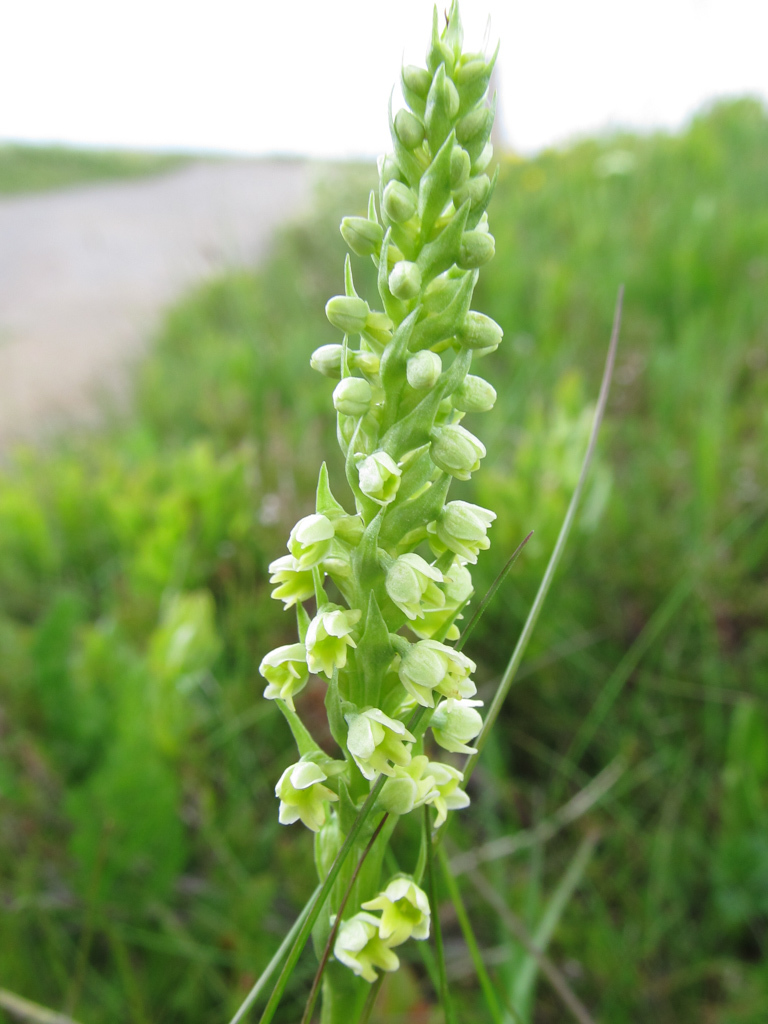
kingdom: Plantae
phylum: Tracheophyta
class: Liliopsida
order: Asparagales
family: Orchidaceae
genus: Pseudorchis
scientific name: Pseudorchis albida
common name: Small-white orchid
